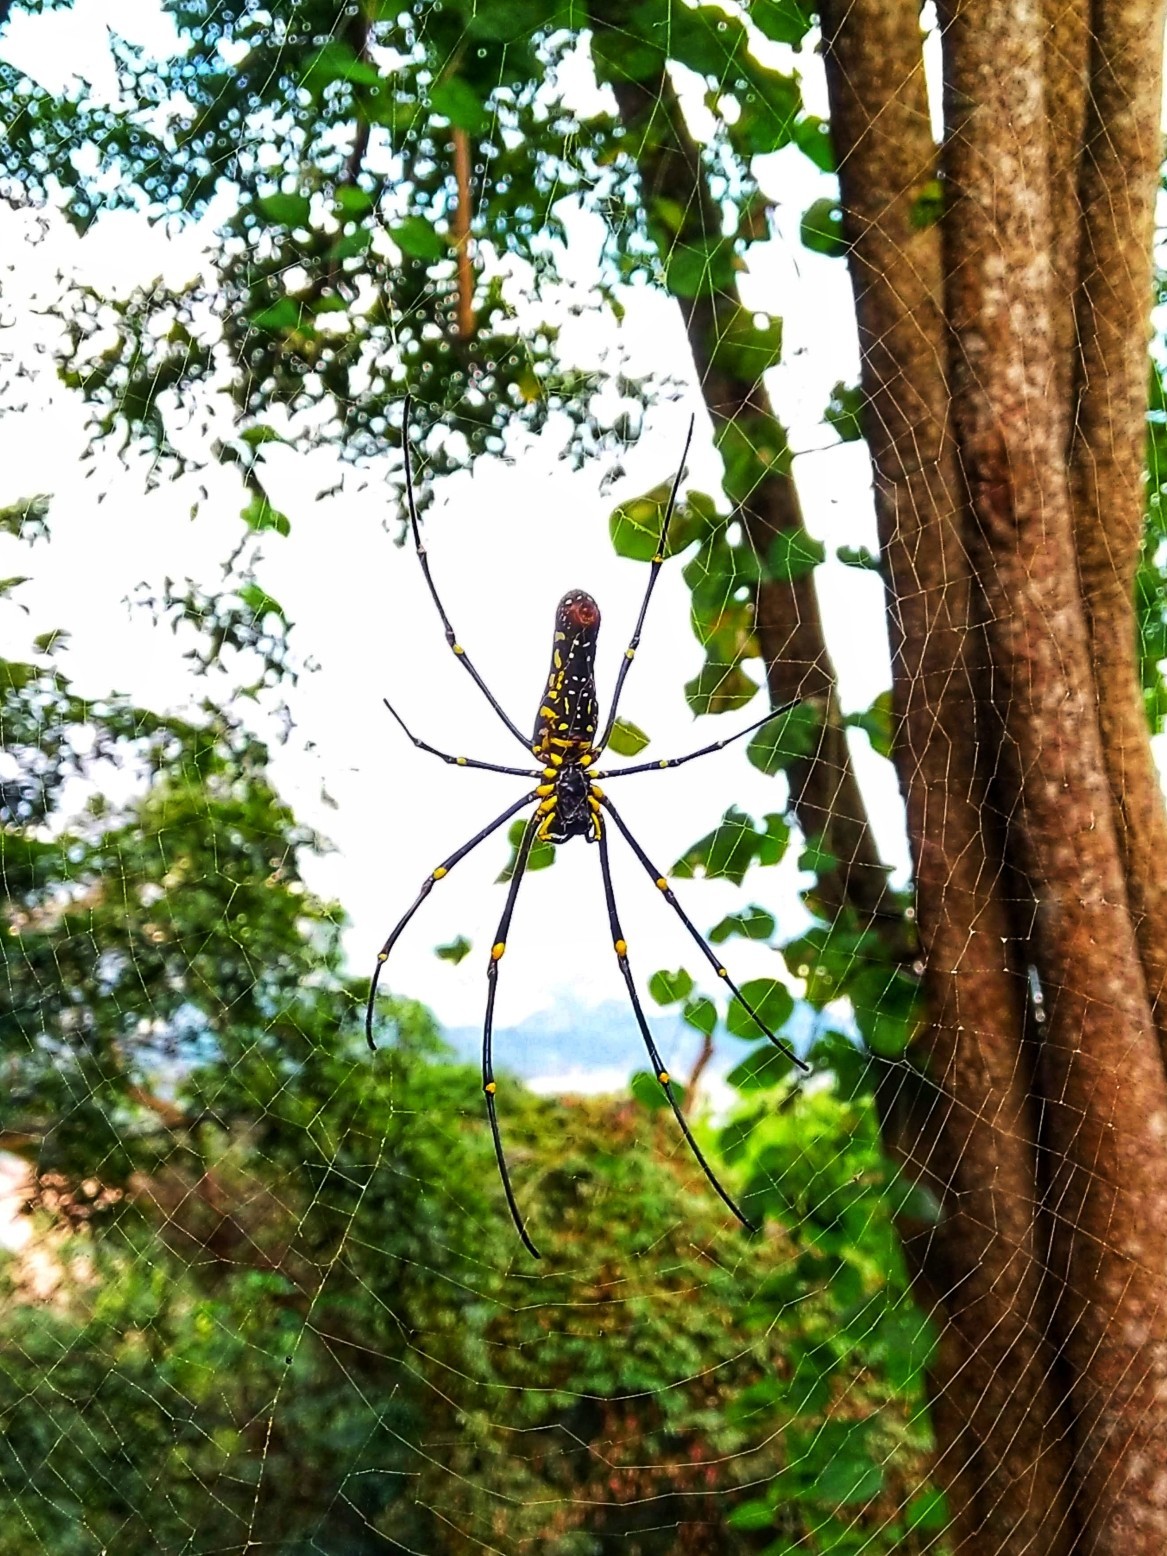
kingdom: Animalia
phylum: Arthropoda
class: Arachnida
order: Araneae
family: Araneidae
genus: Nephila
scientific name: Nephila pilipes
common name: Giant golden orb weaver
